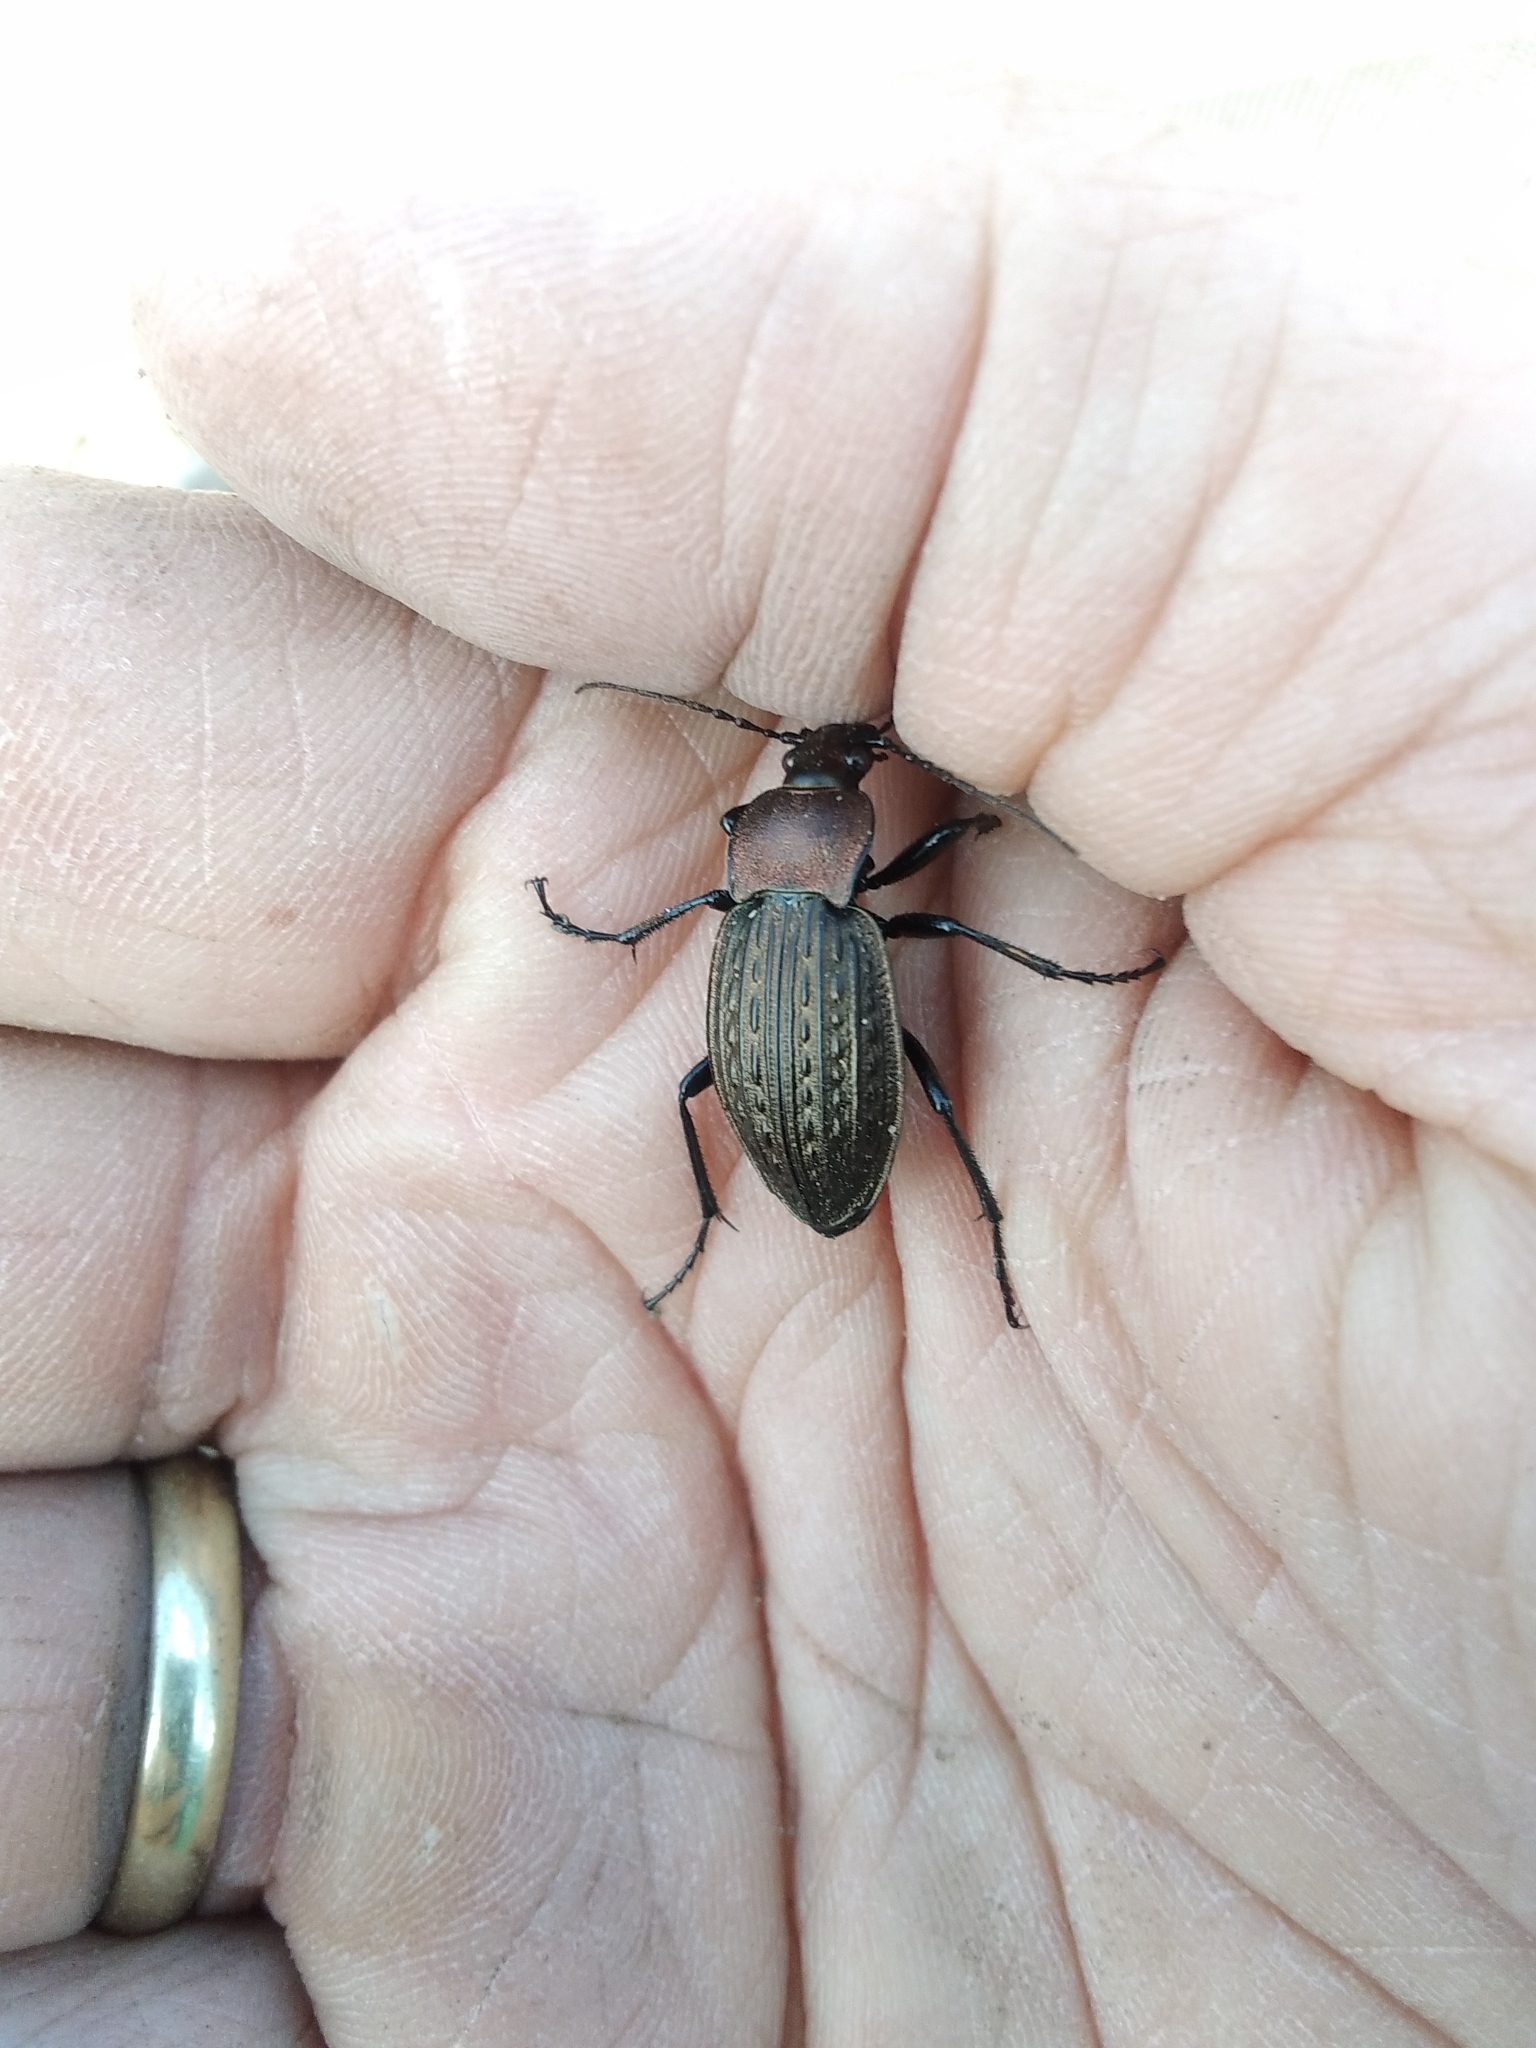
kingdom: Animalia
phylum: Arthropoda
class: Insecta
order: Coleoptera
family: Carabidae
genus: Carabus
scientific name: Carabus cancellatus
